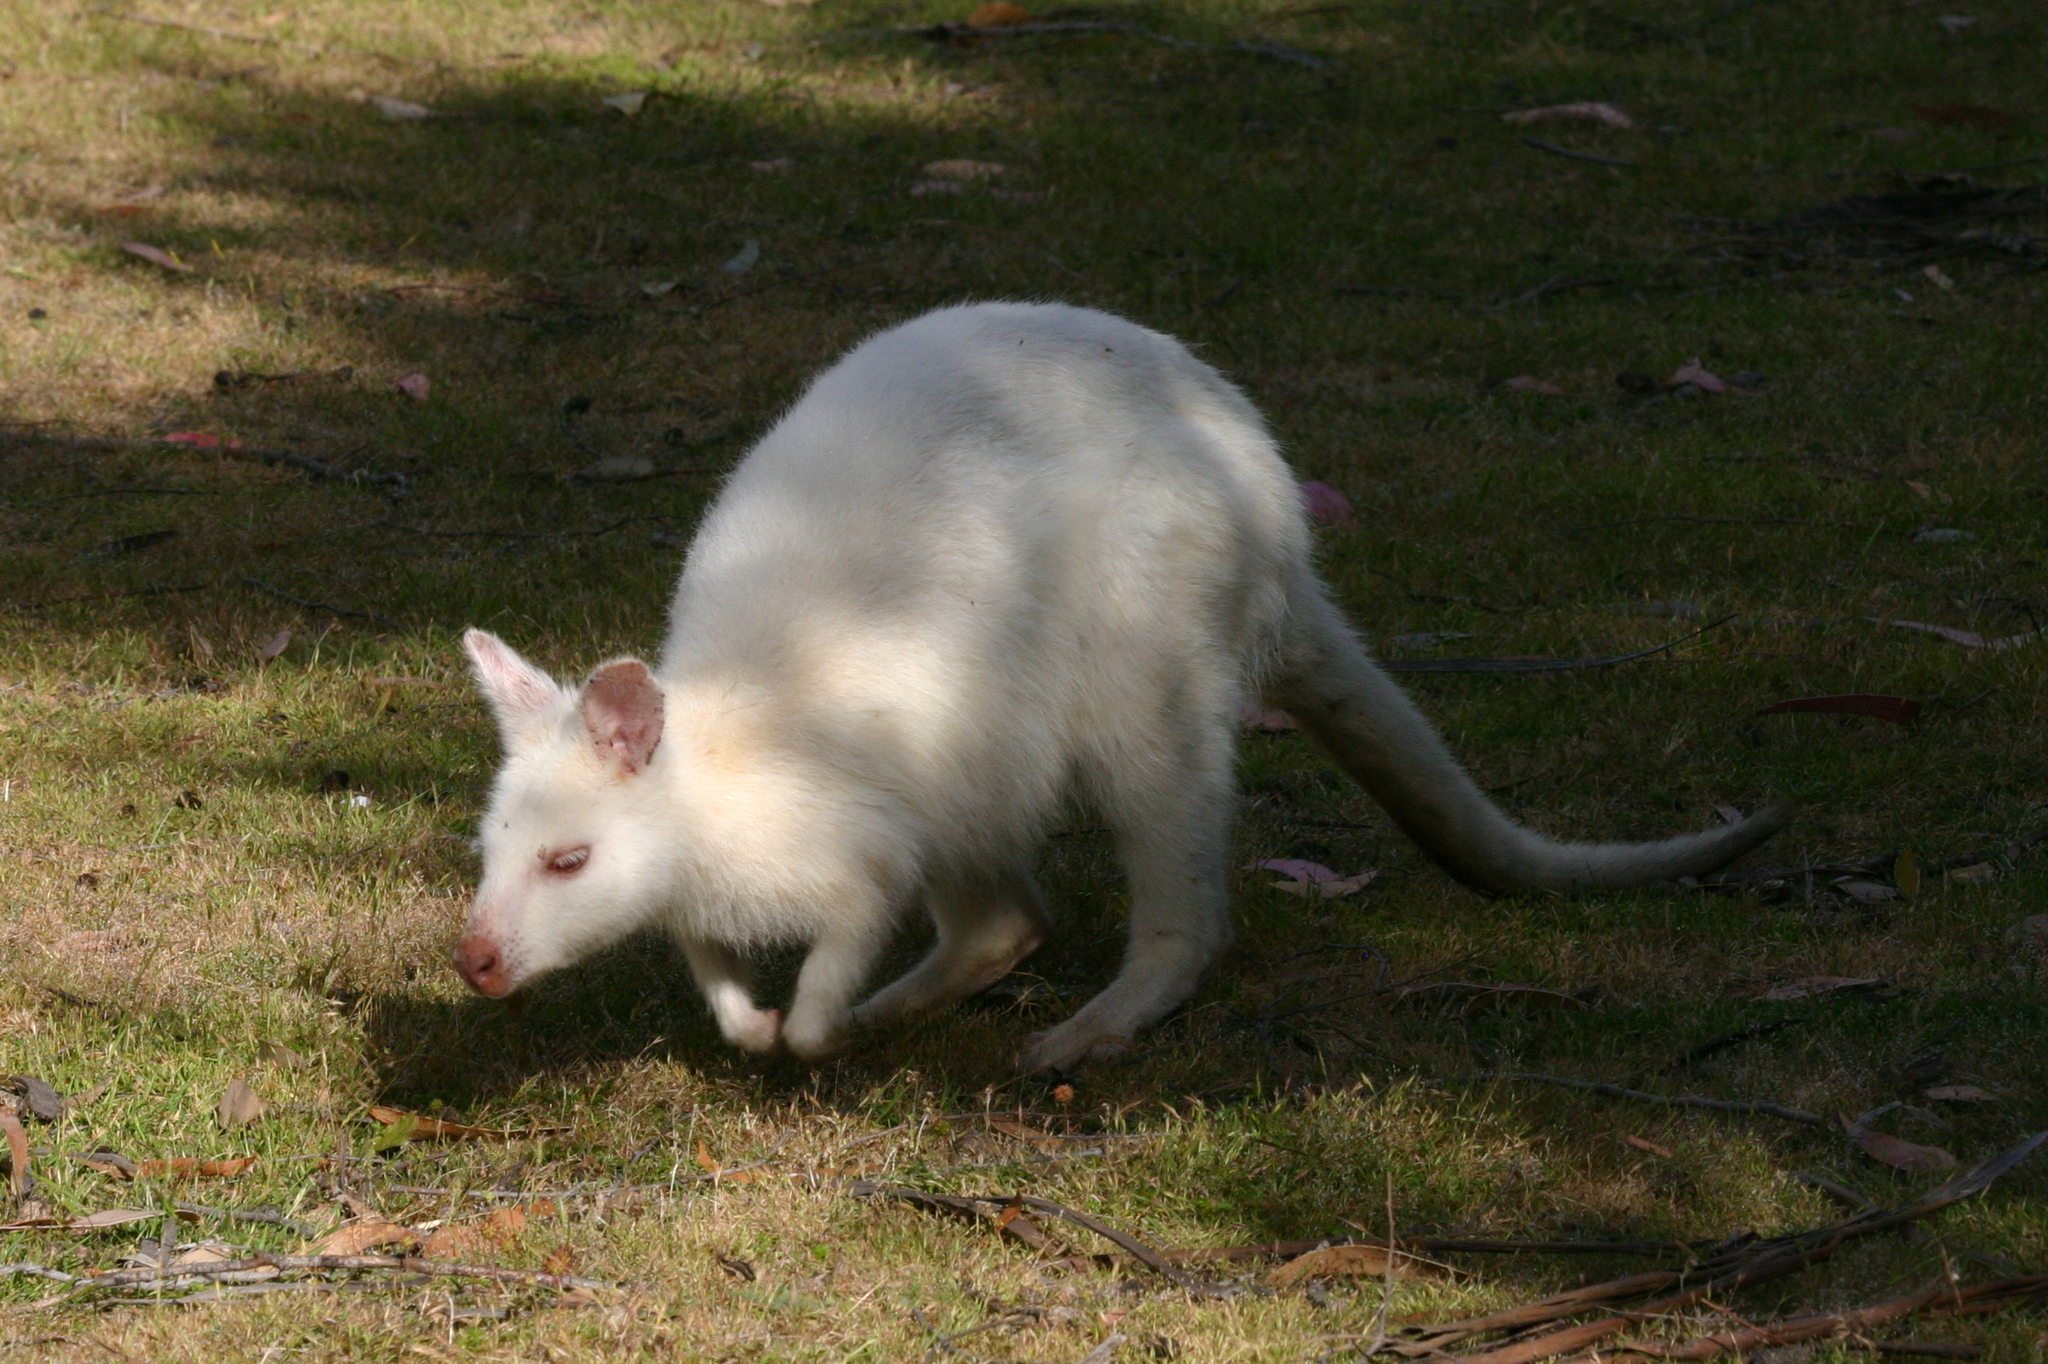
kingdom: Animalia
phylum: Chordata
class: Mammalia
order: Diprotodontia
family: Macropodidae
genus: Notamacropus
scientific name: Notamacropus rufogriseus
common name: Red-necked wallaby
